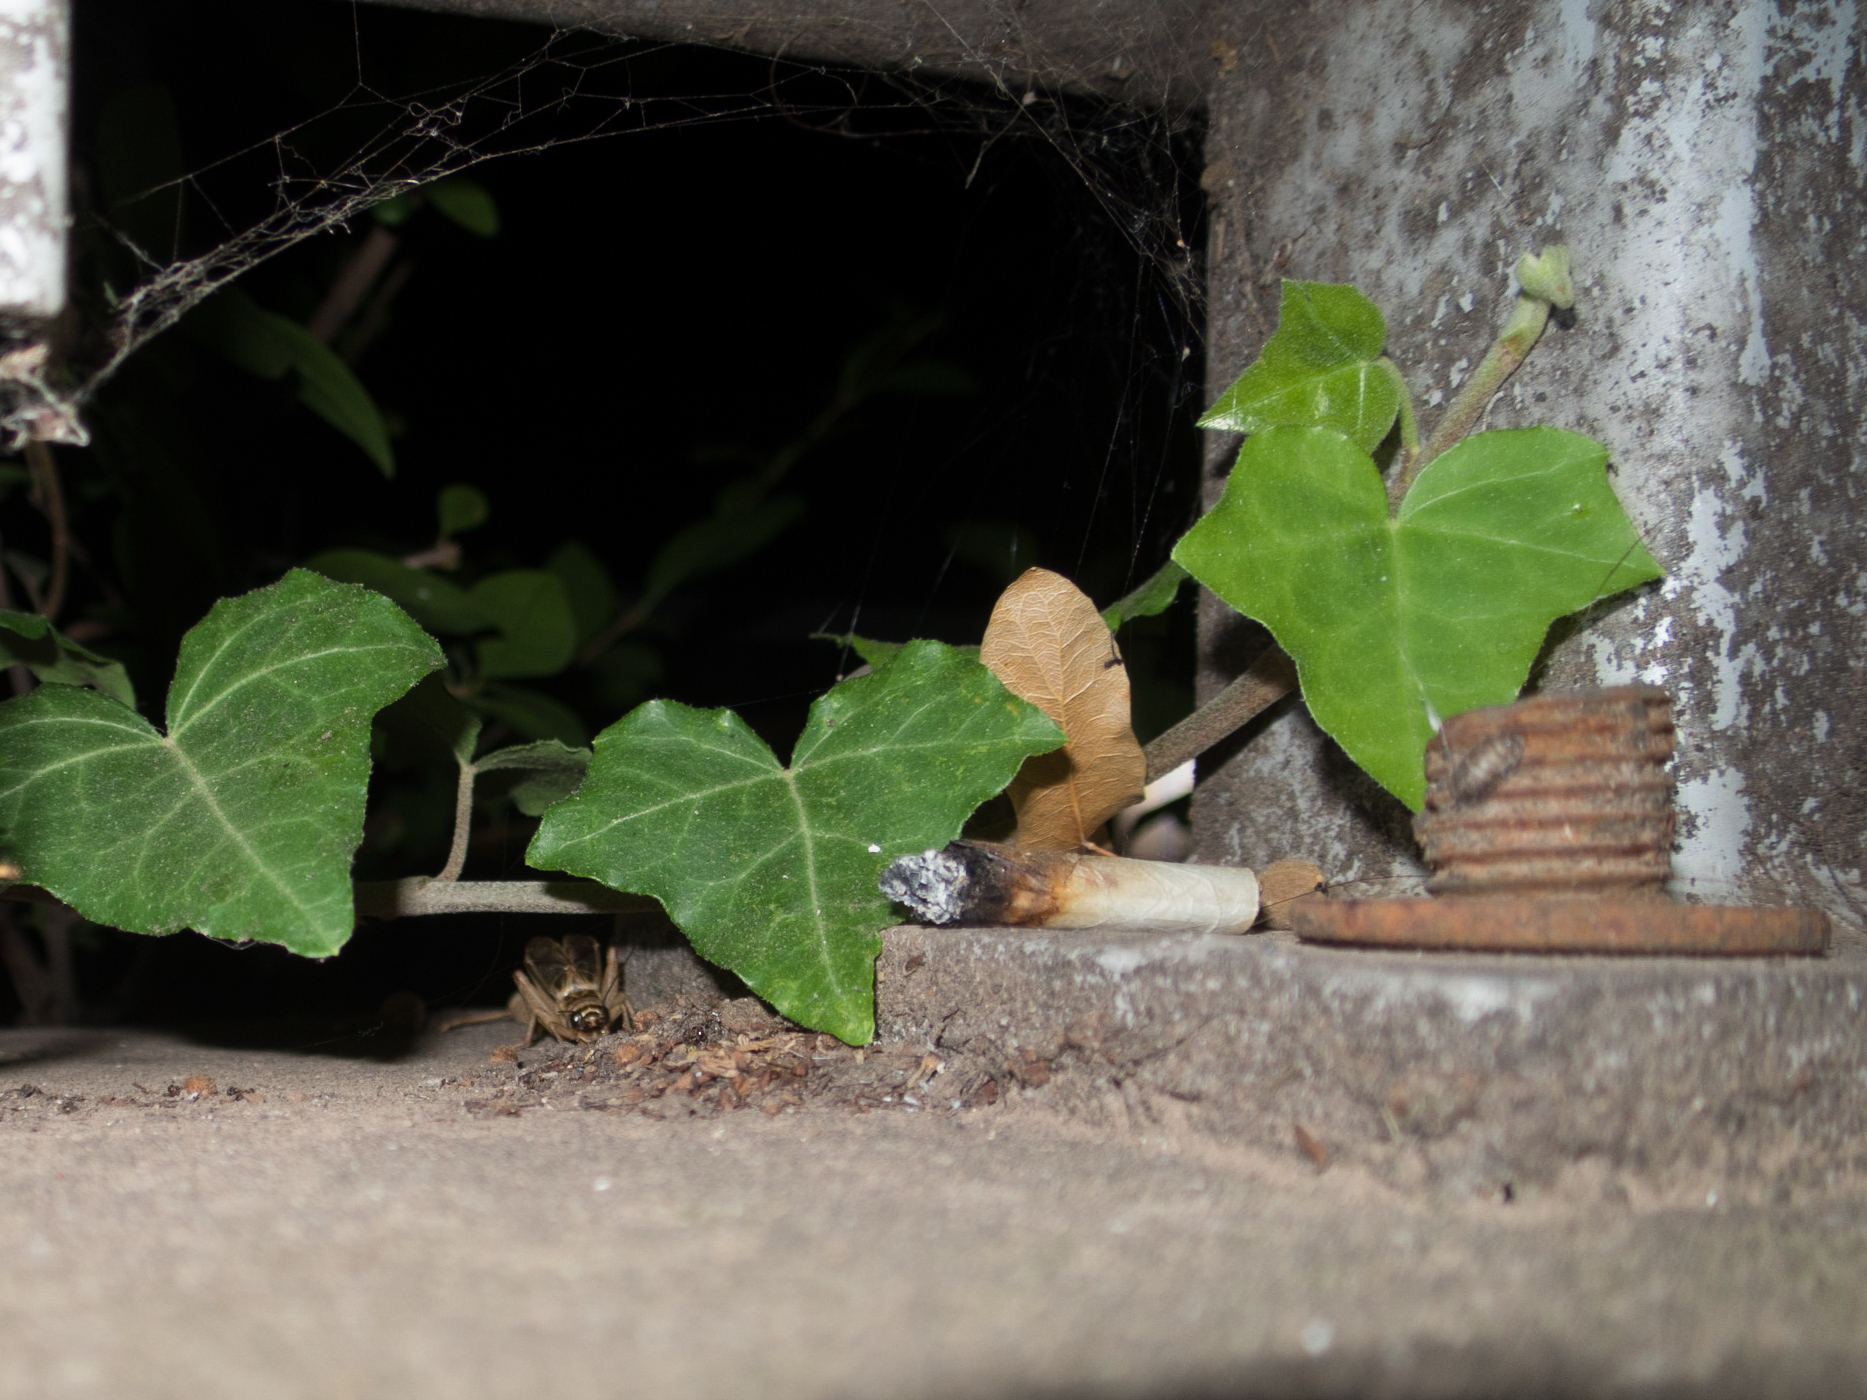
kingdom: Animalia
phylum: Arthropoda
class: Insecta
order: Orthoptera
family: Gryllidae
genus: Acheta
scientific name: Acheta domesticus
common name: House cricket
